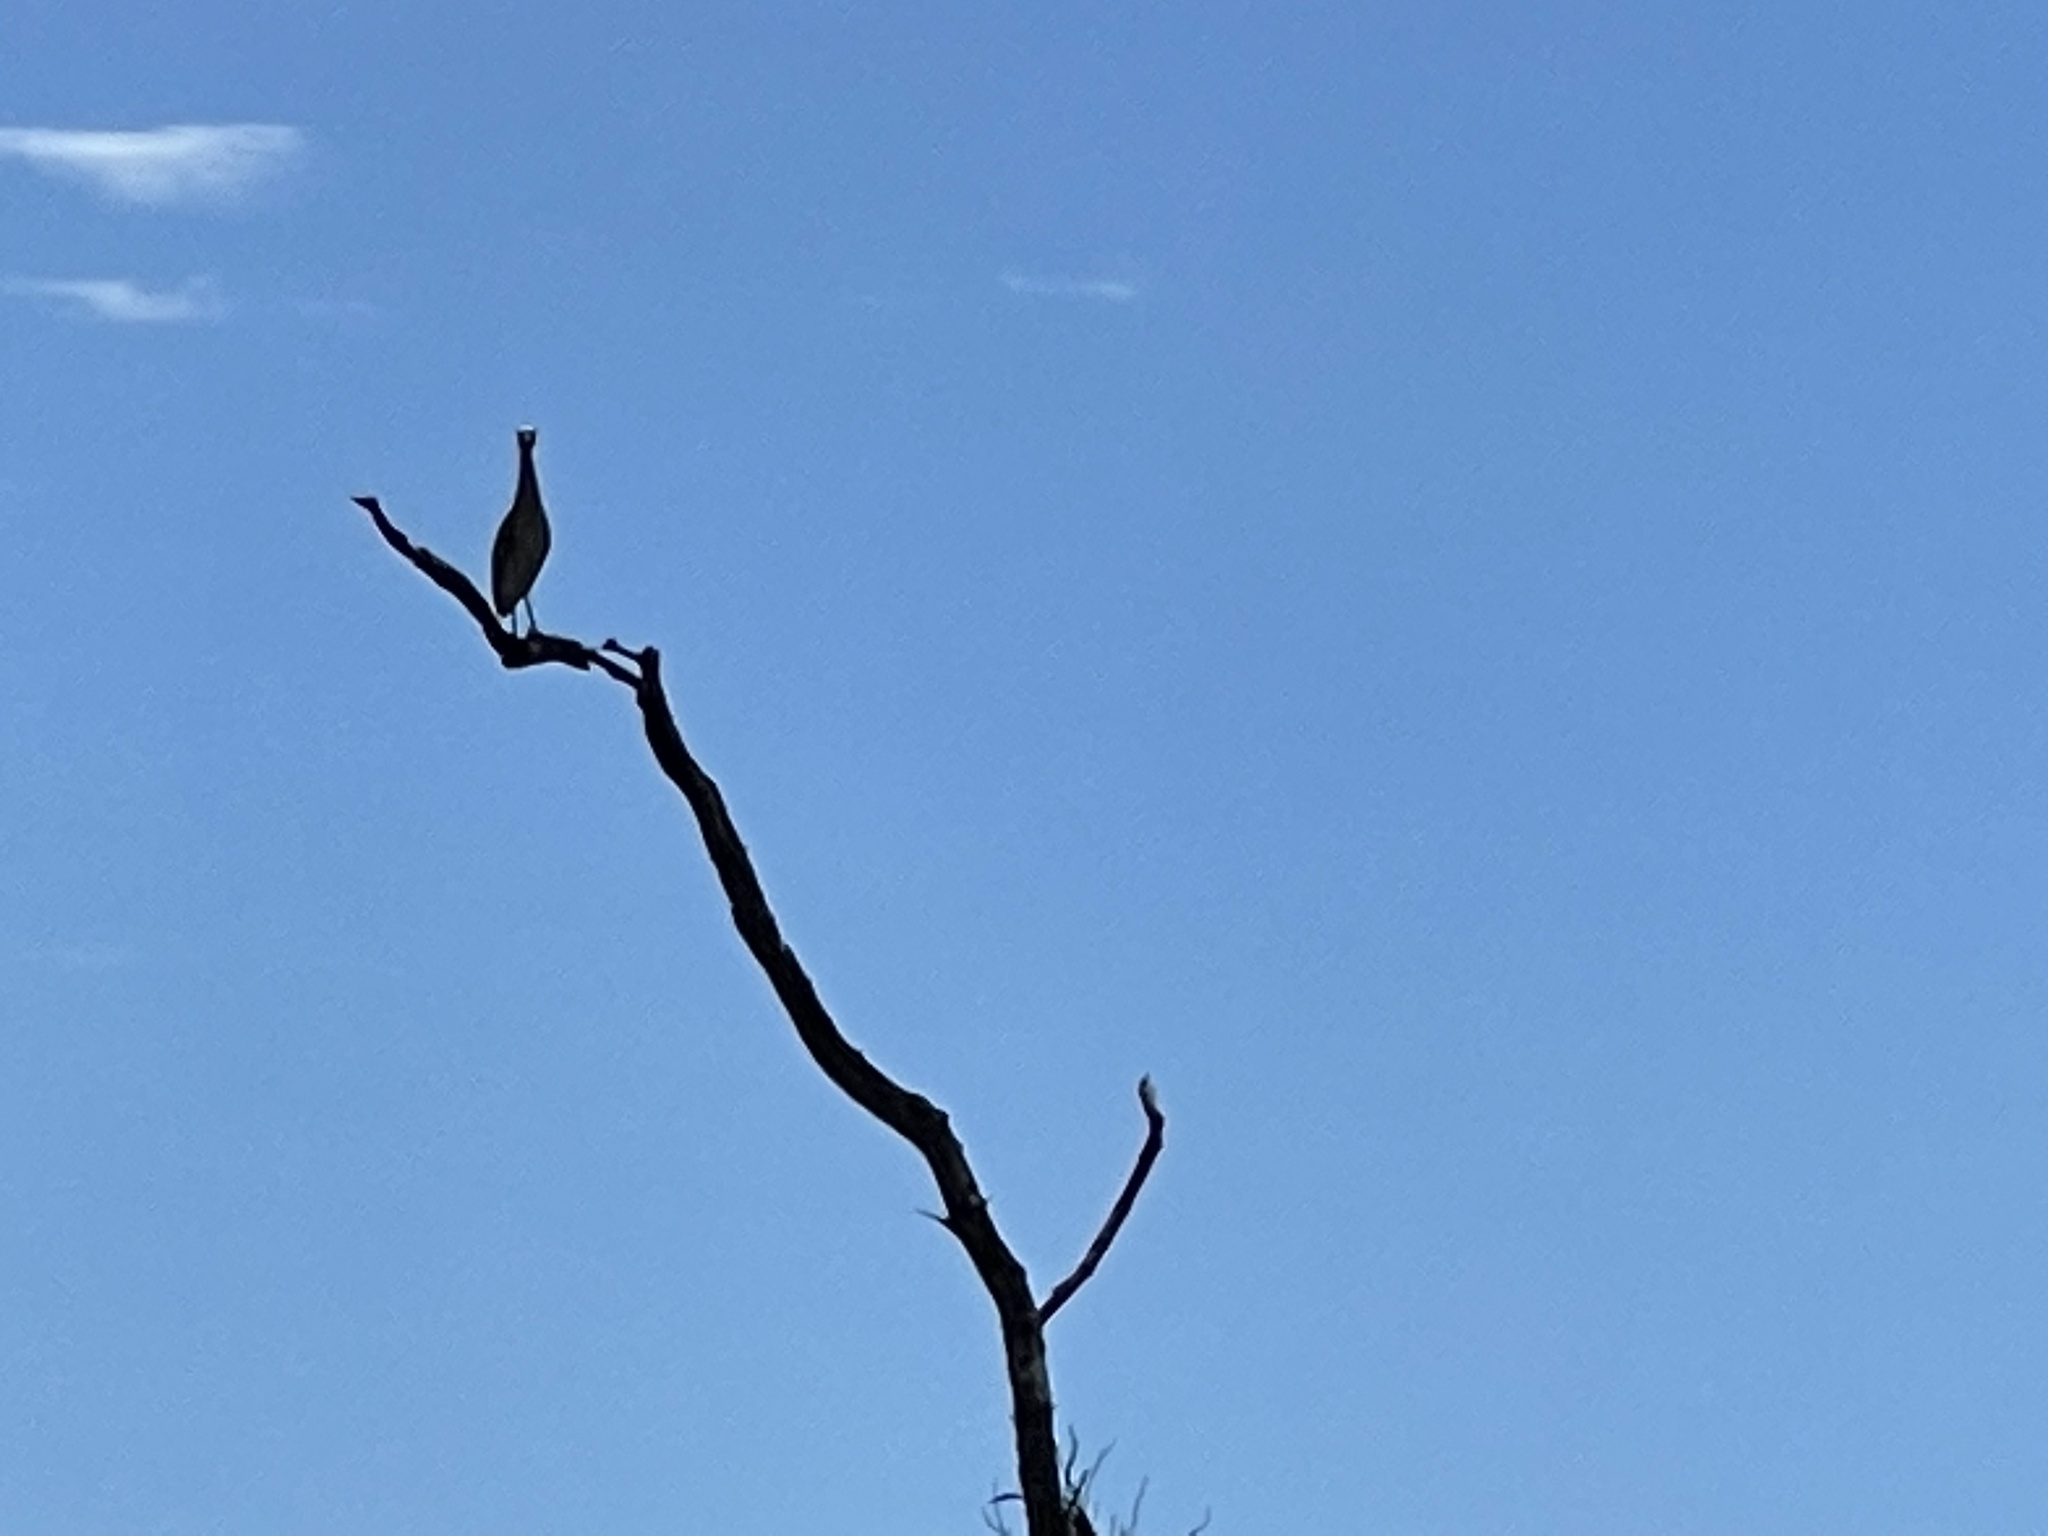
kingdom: Animalia
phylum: Chordata
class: Aves
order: Pelecaniformes
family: Ardeidae
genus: Nyctanassa
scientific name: Nyctanassa violacea
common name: Yellow-crowned night heron
